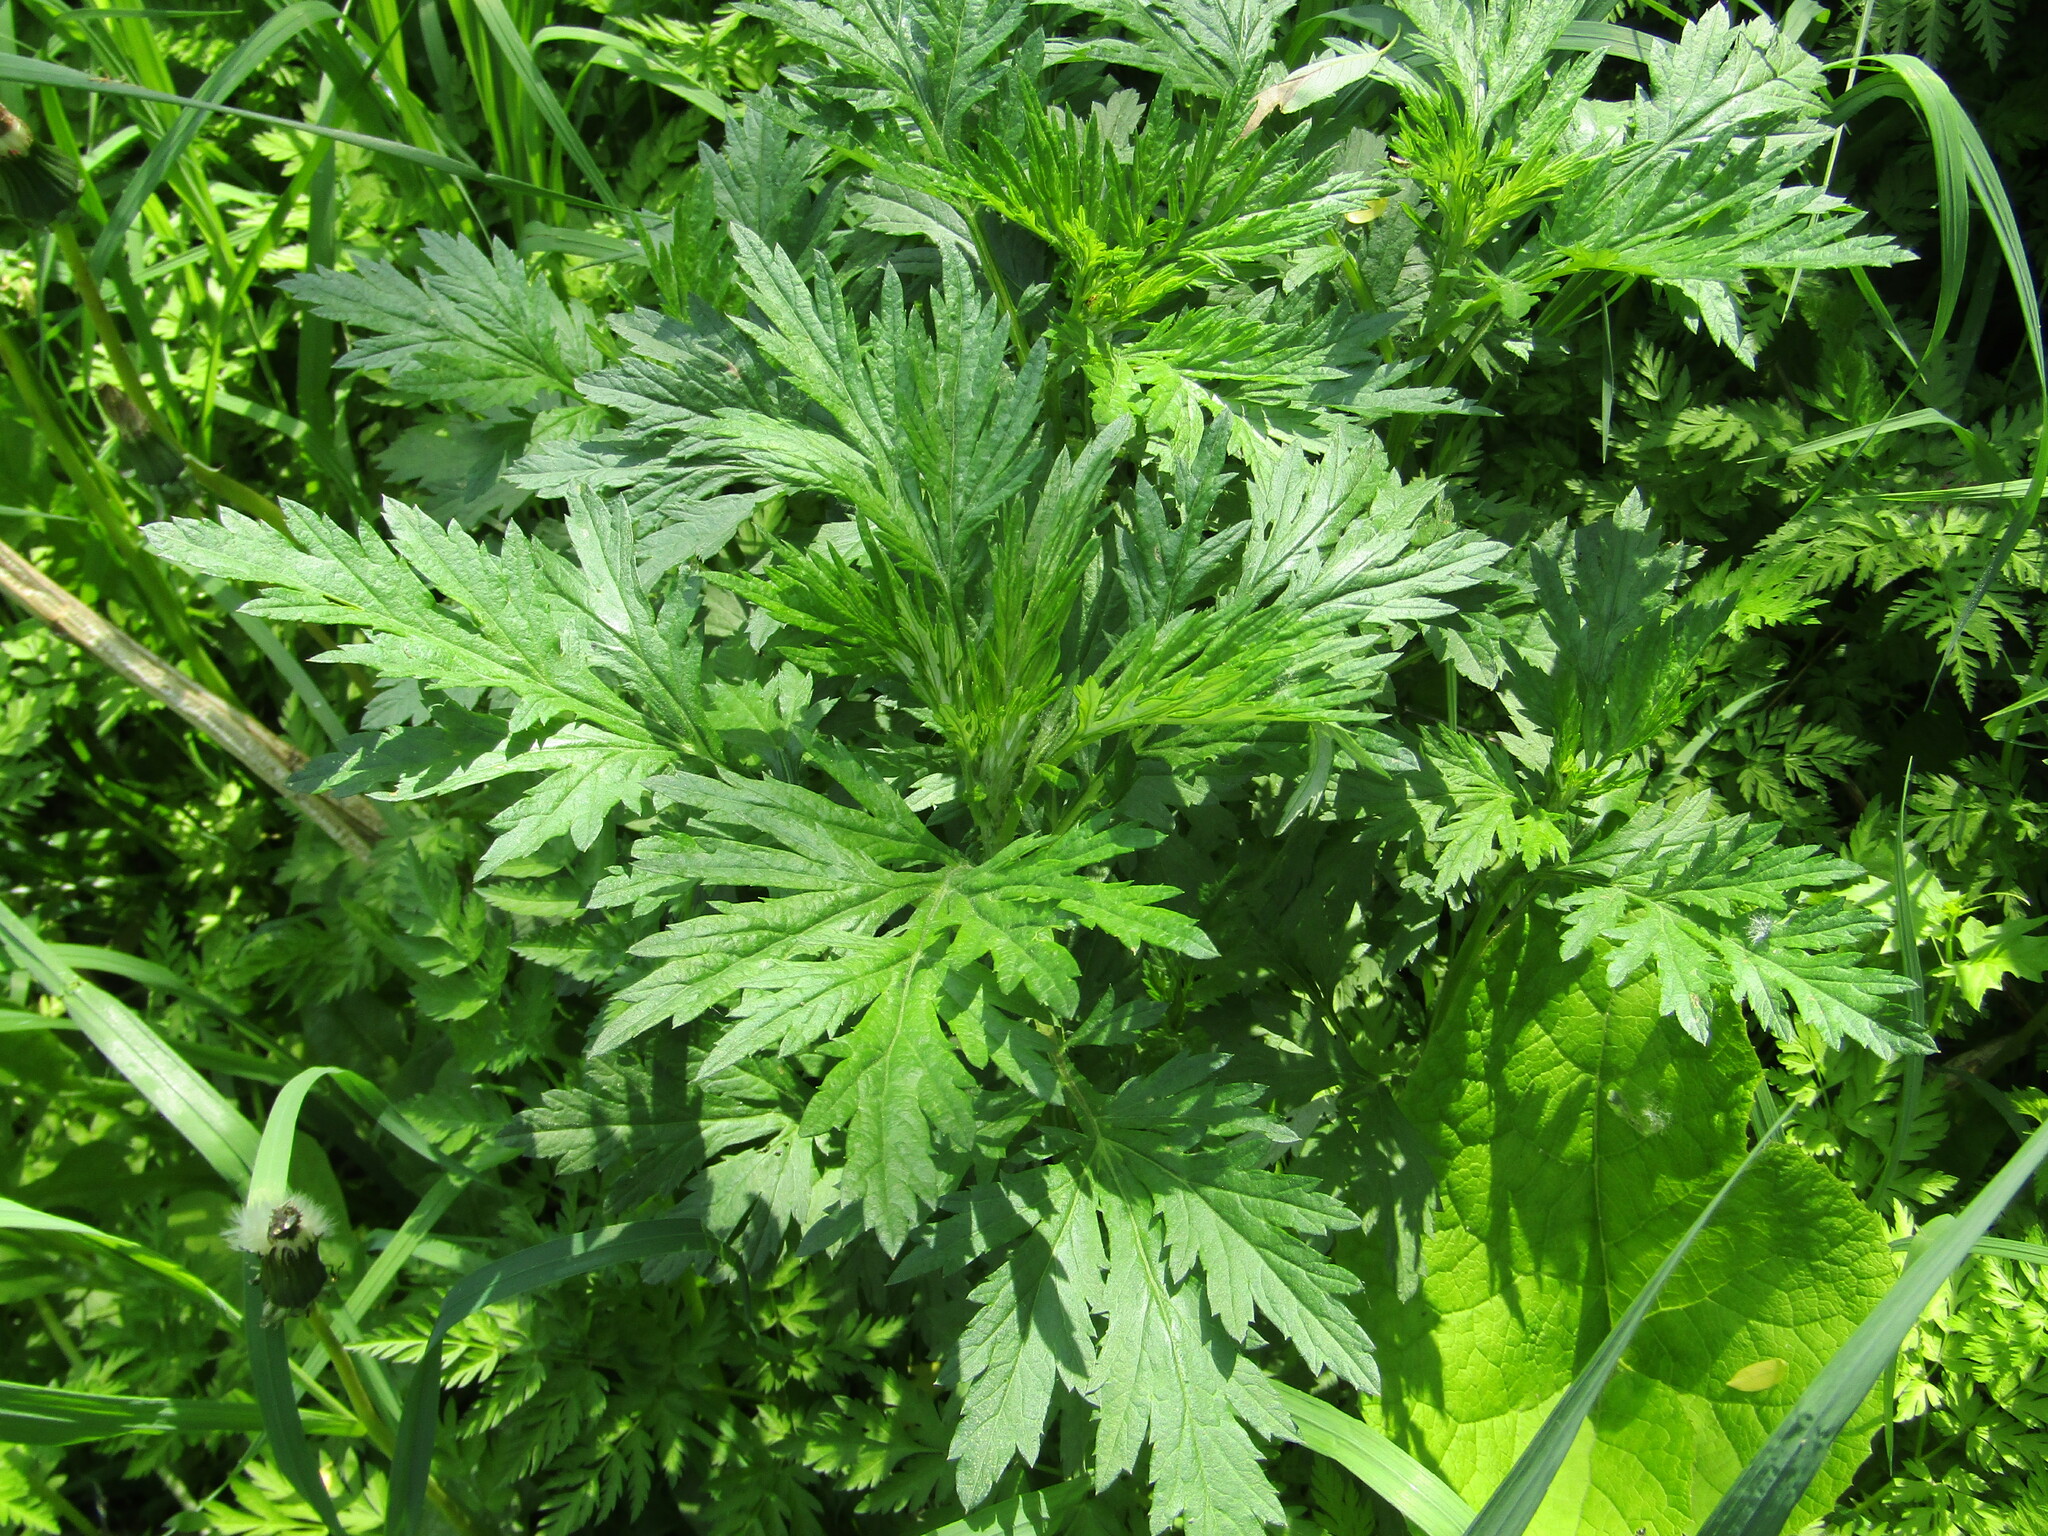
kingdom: Plantae
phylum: Tracheophyta
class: Magnoliopsida
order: Asterales
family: Asteraceae
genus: Artemisia
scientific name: Artemisia vulgaris
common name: Mugwort
